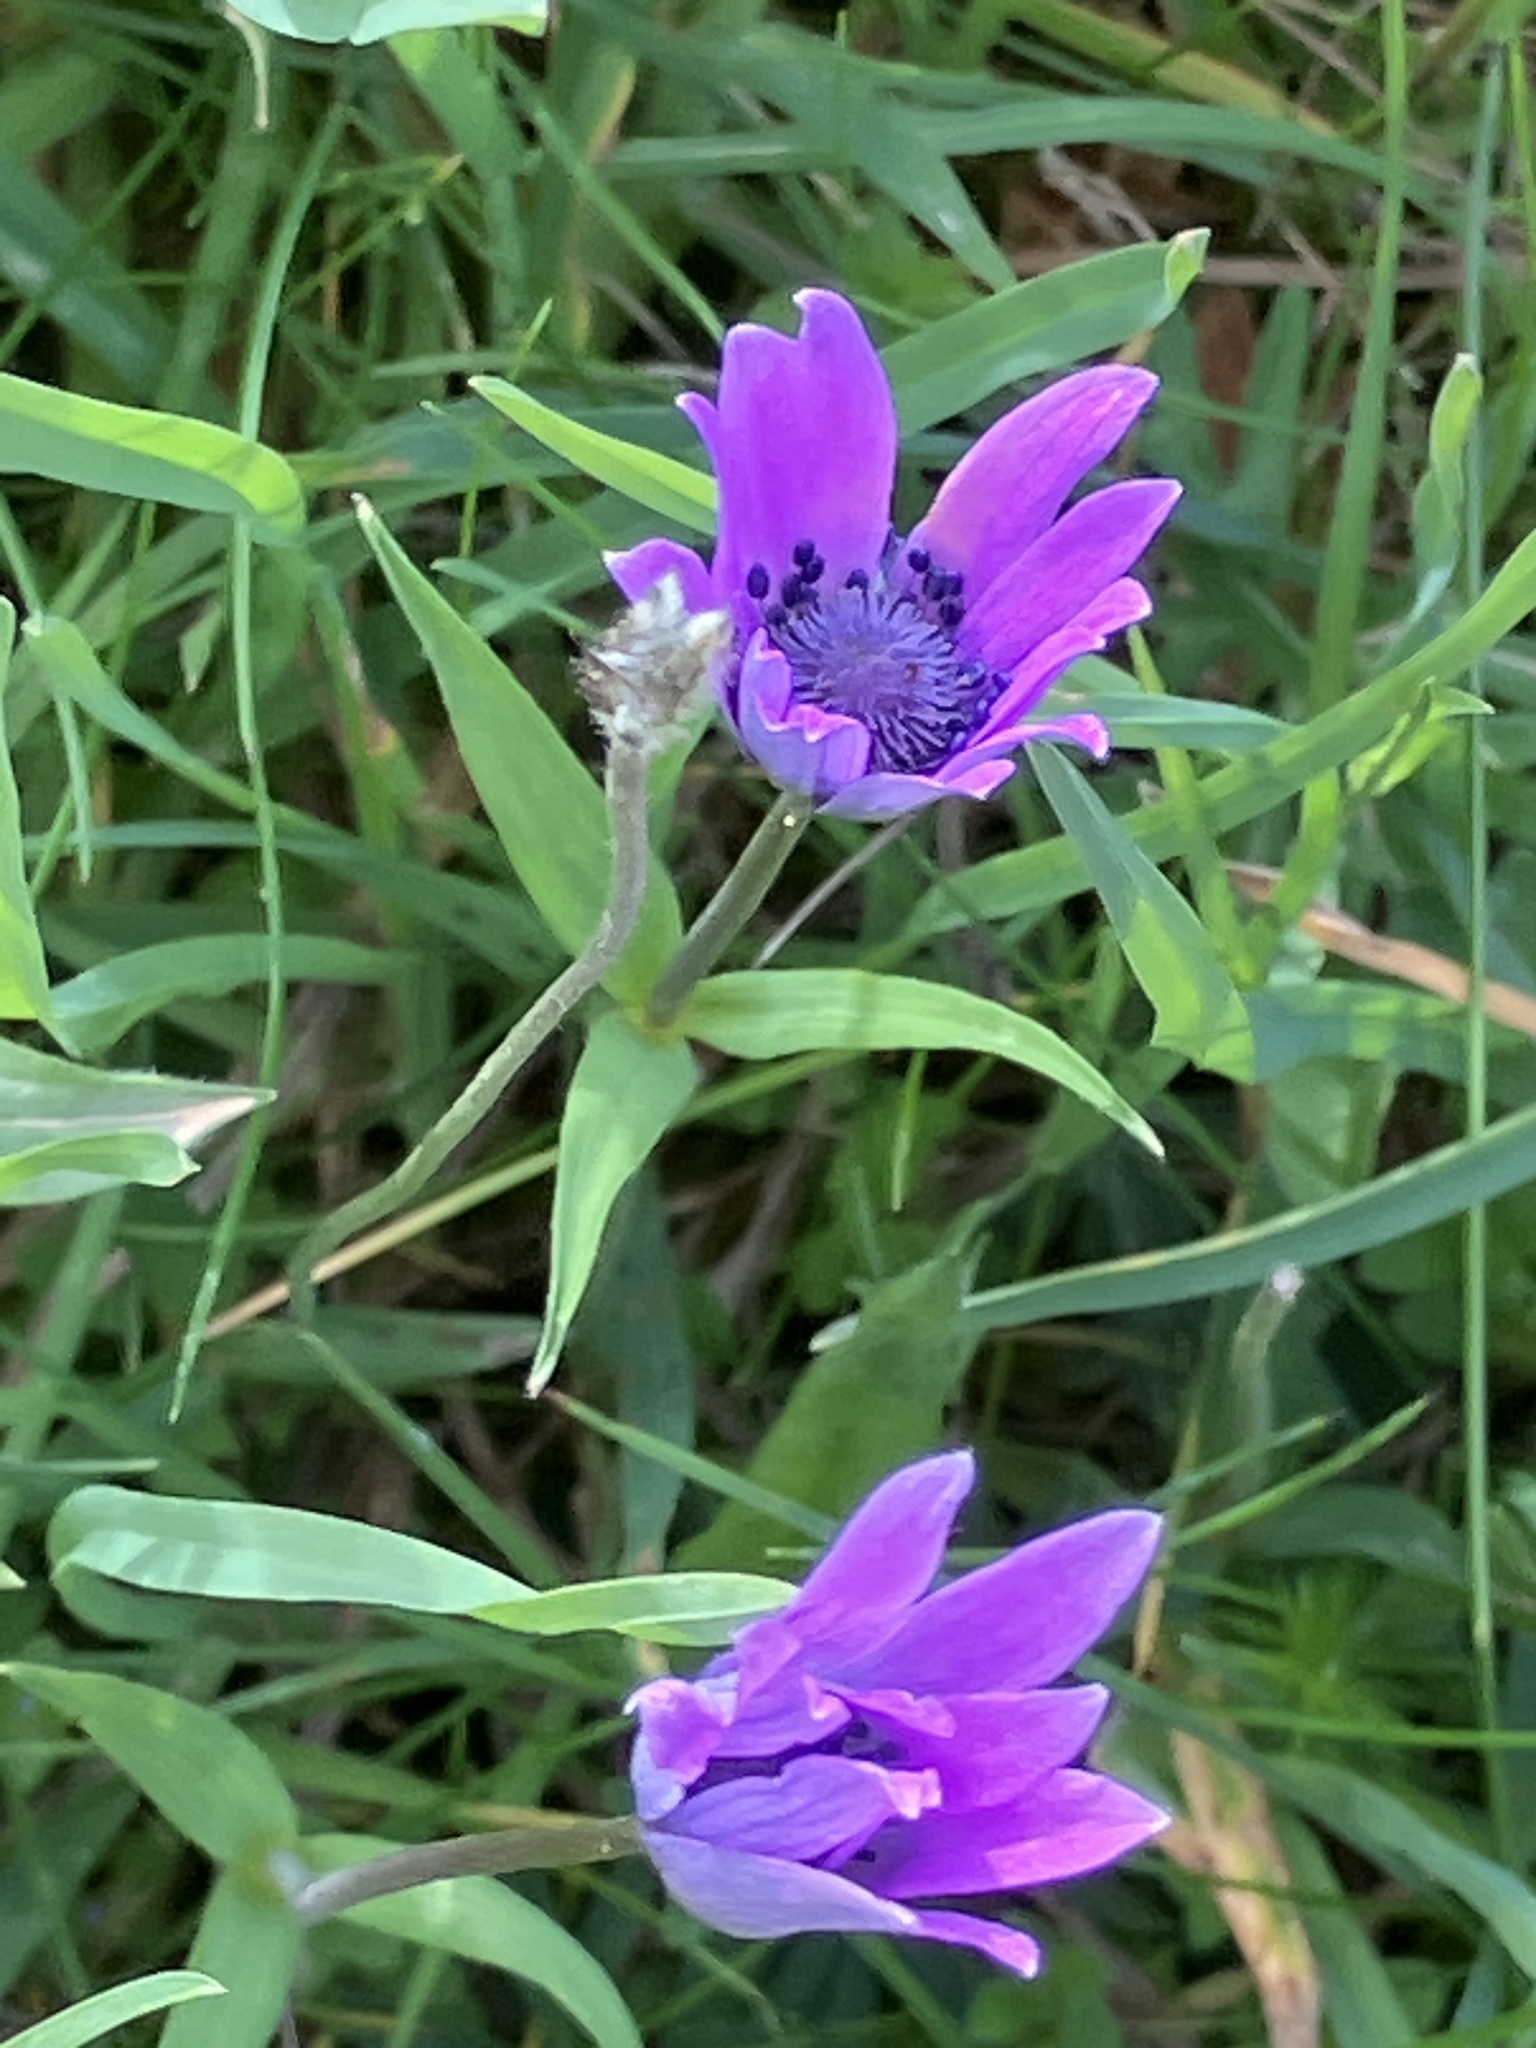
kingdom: Plantae
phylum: Tracheophyta
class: Magnoliopsida
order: Ranunculales
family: Ranunculaceae
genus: Anemone
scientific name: Anemone hortensis
